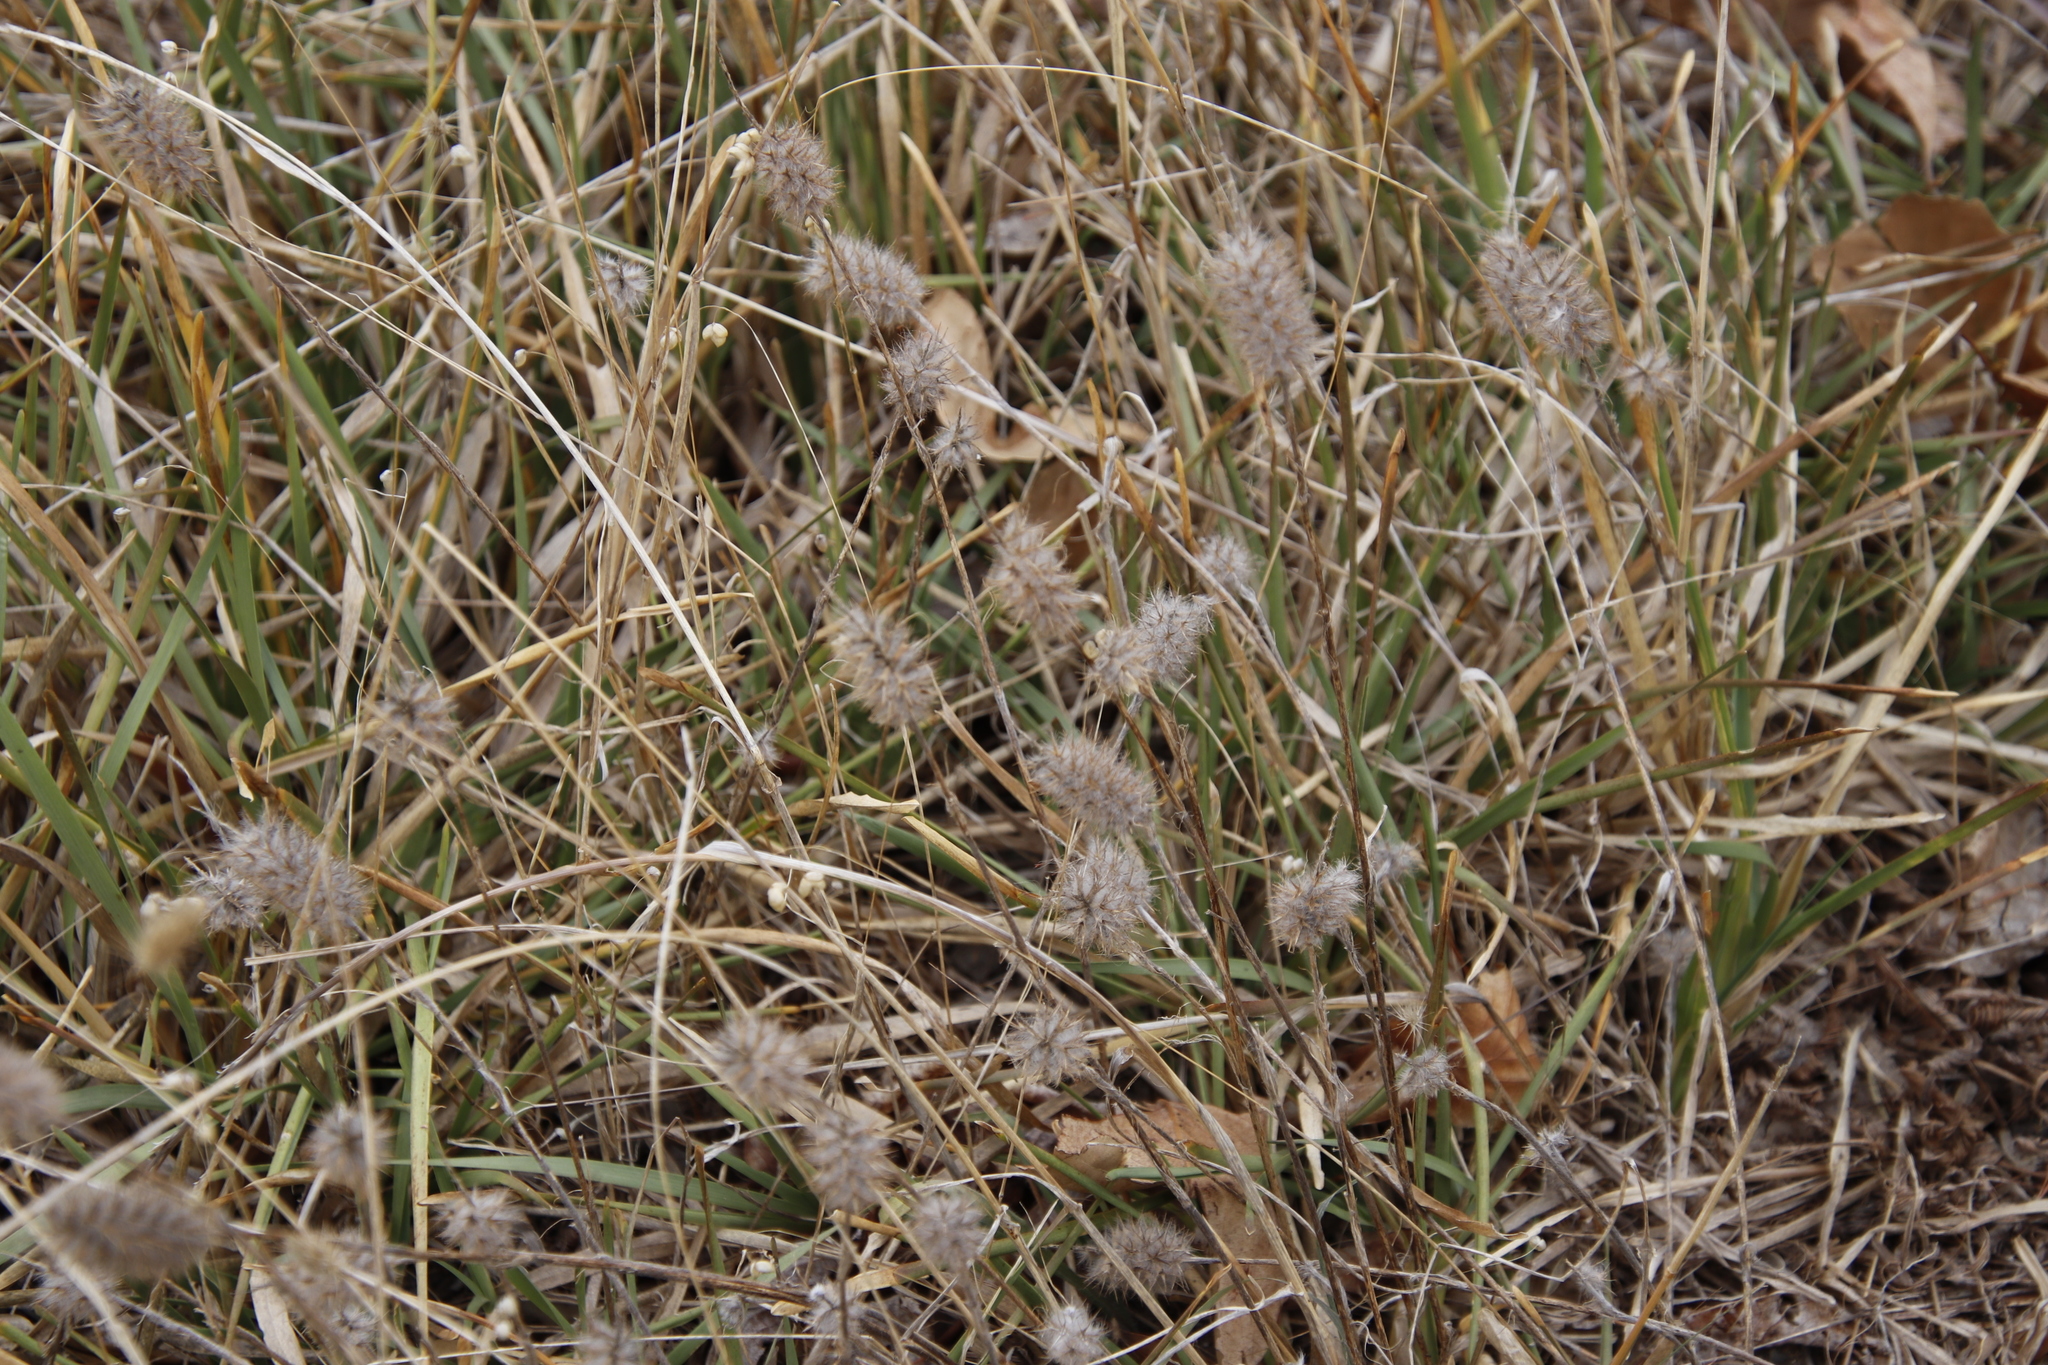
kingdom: Plantae
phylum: Tracheophyta
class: Magnoliopsida
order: Fabales
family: Fabaceae
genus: Trifolium
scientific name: Trifolium angustifolium
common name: Narrow clover
